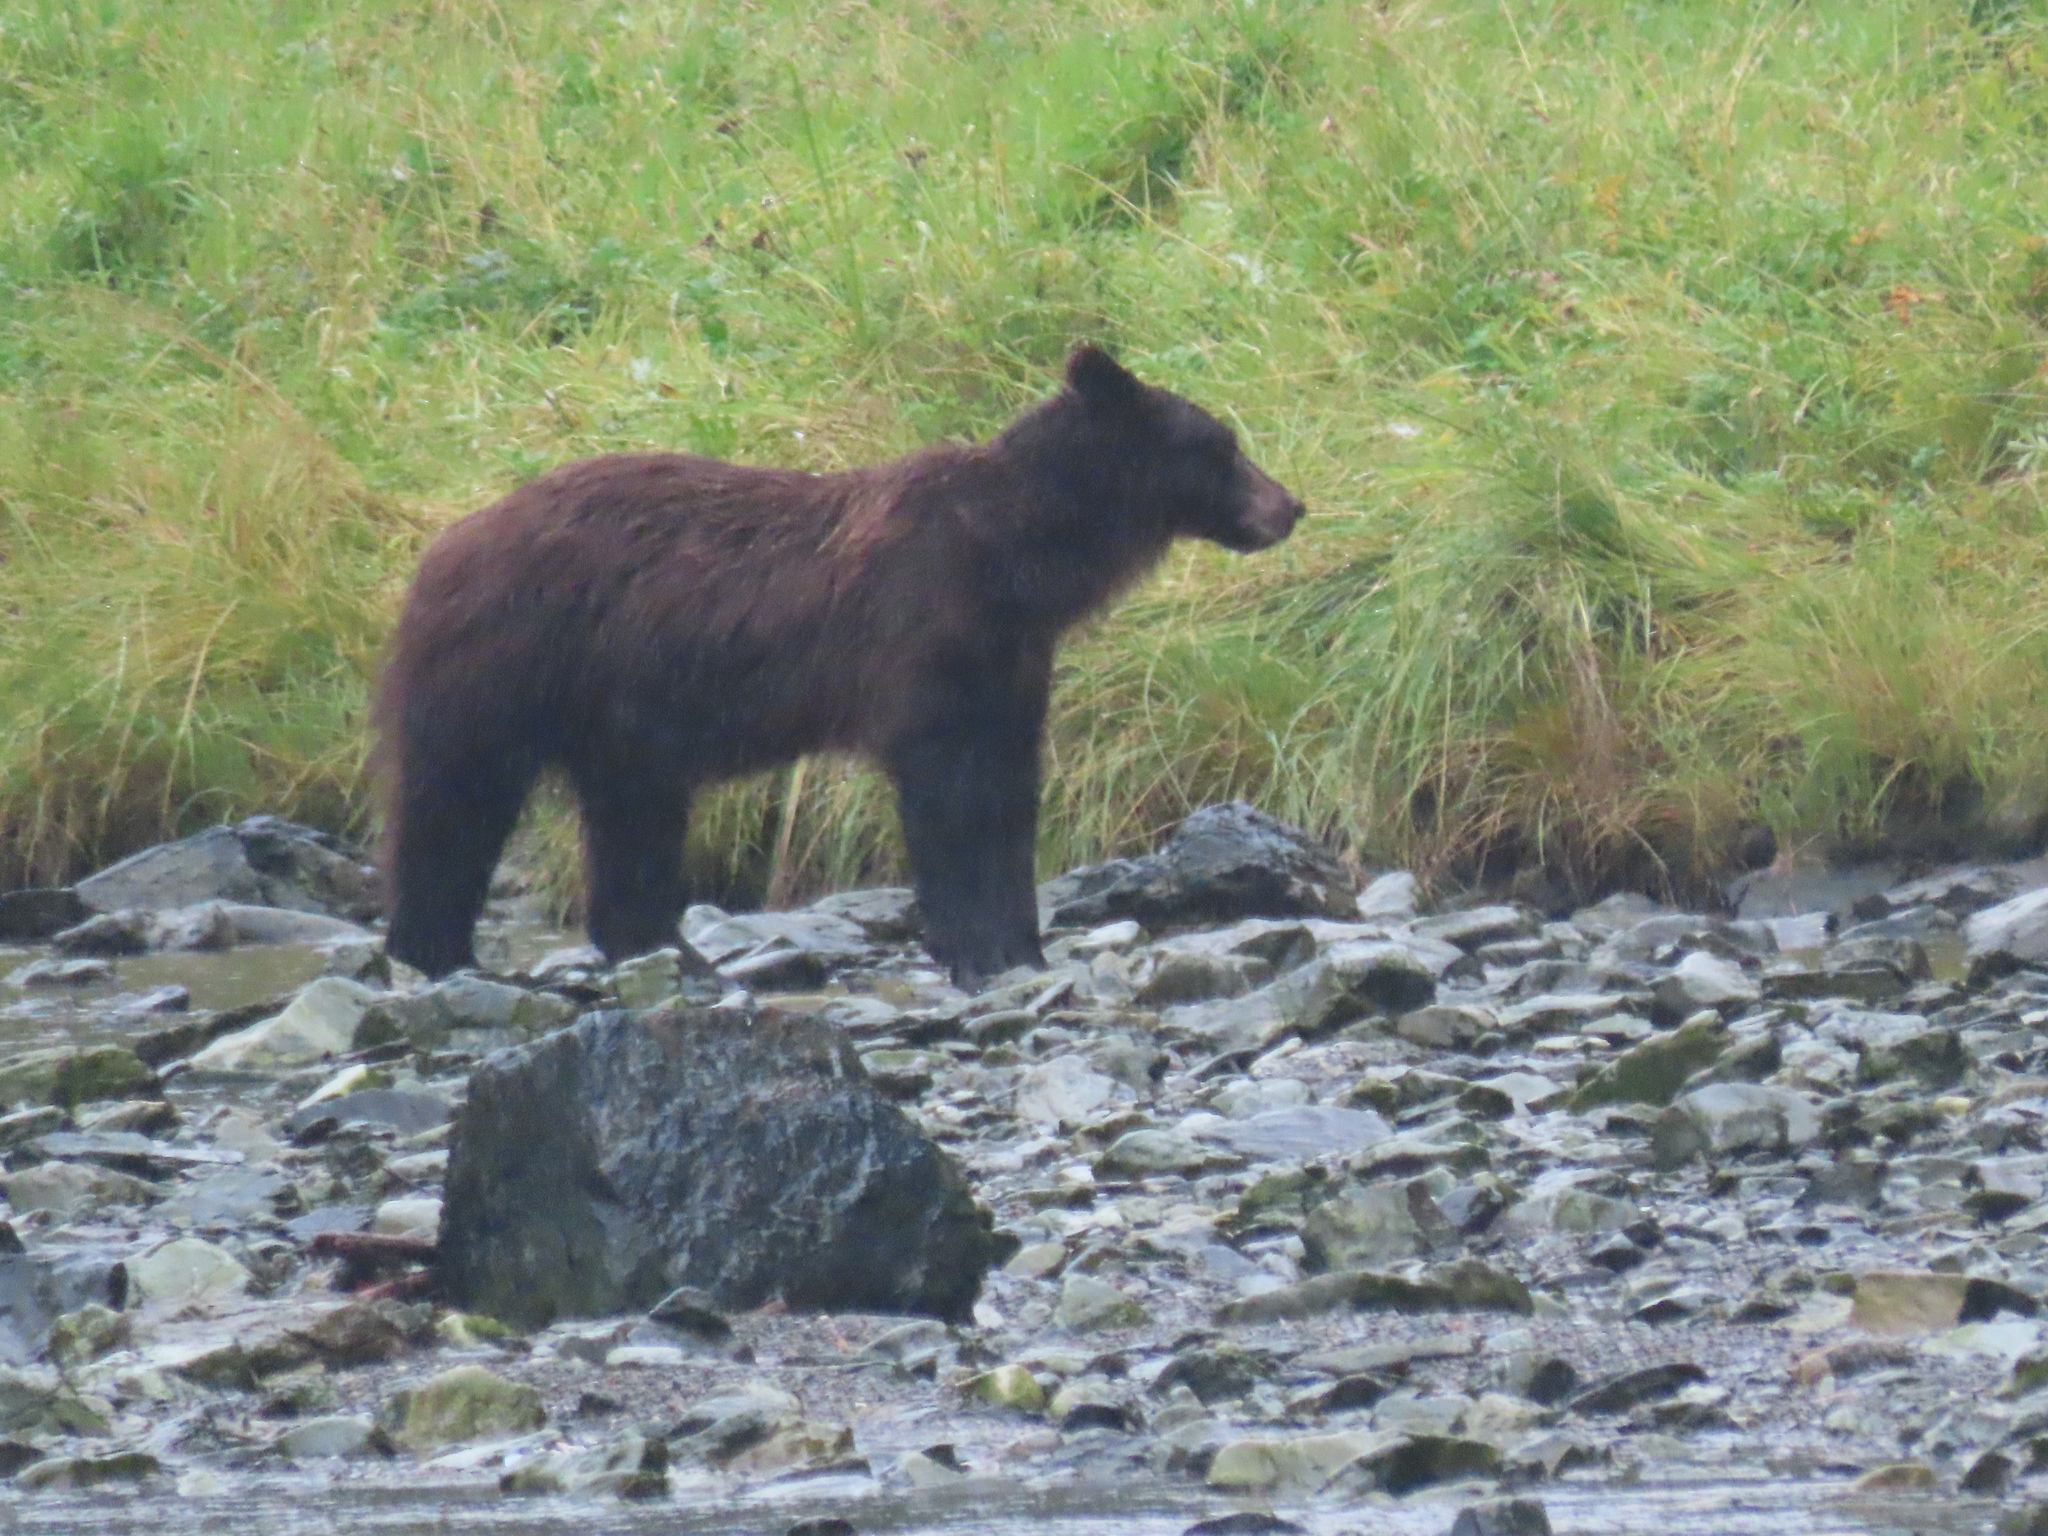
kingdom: Animalia
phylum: Chordata
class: Mammalia
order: Carnivora
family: Ursidae
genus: Ursus
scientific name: Ursus arctos
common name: Brown bear
